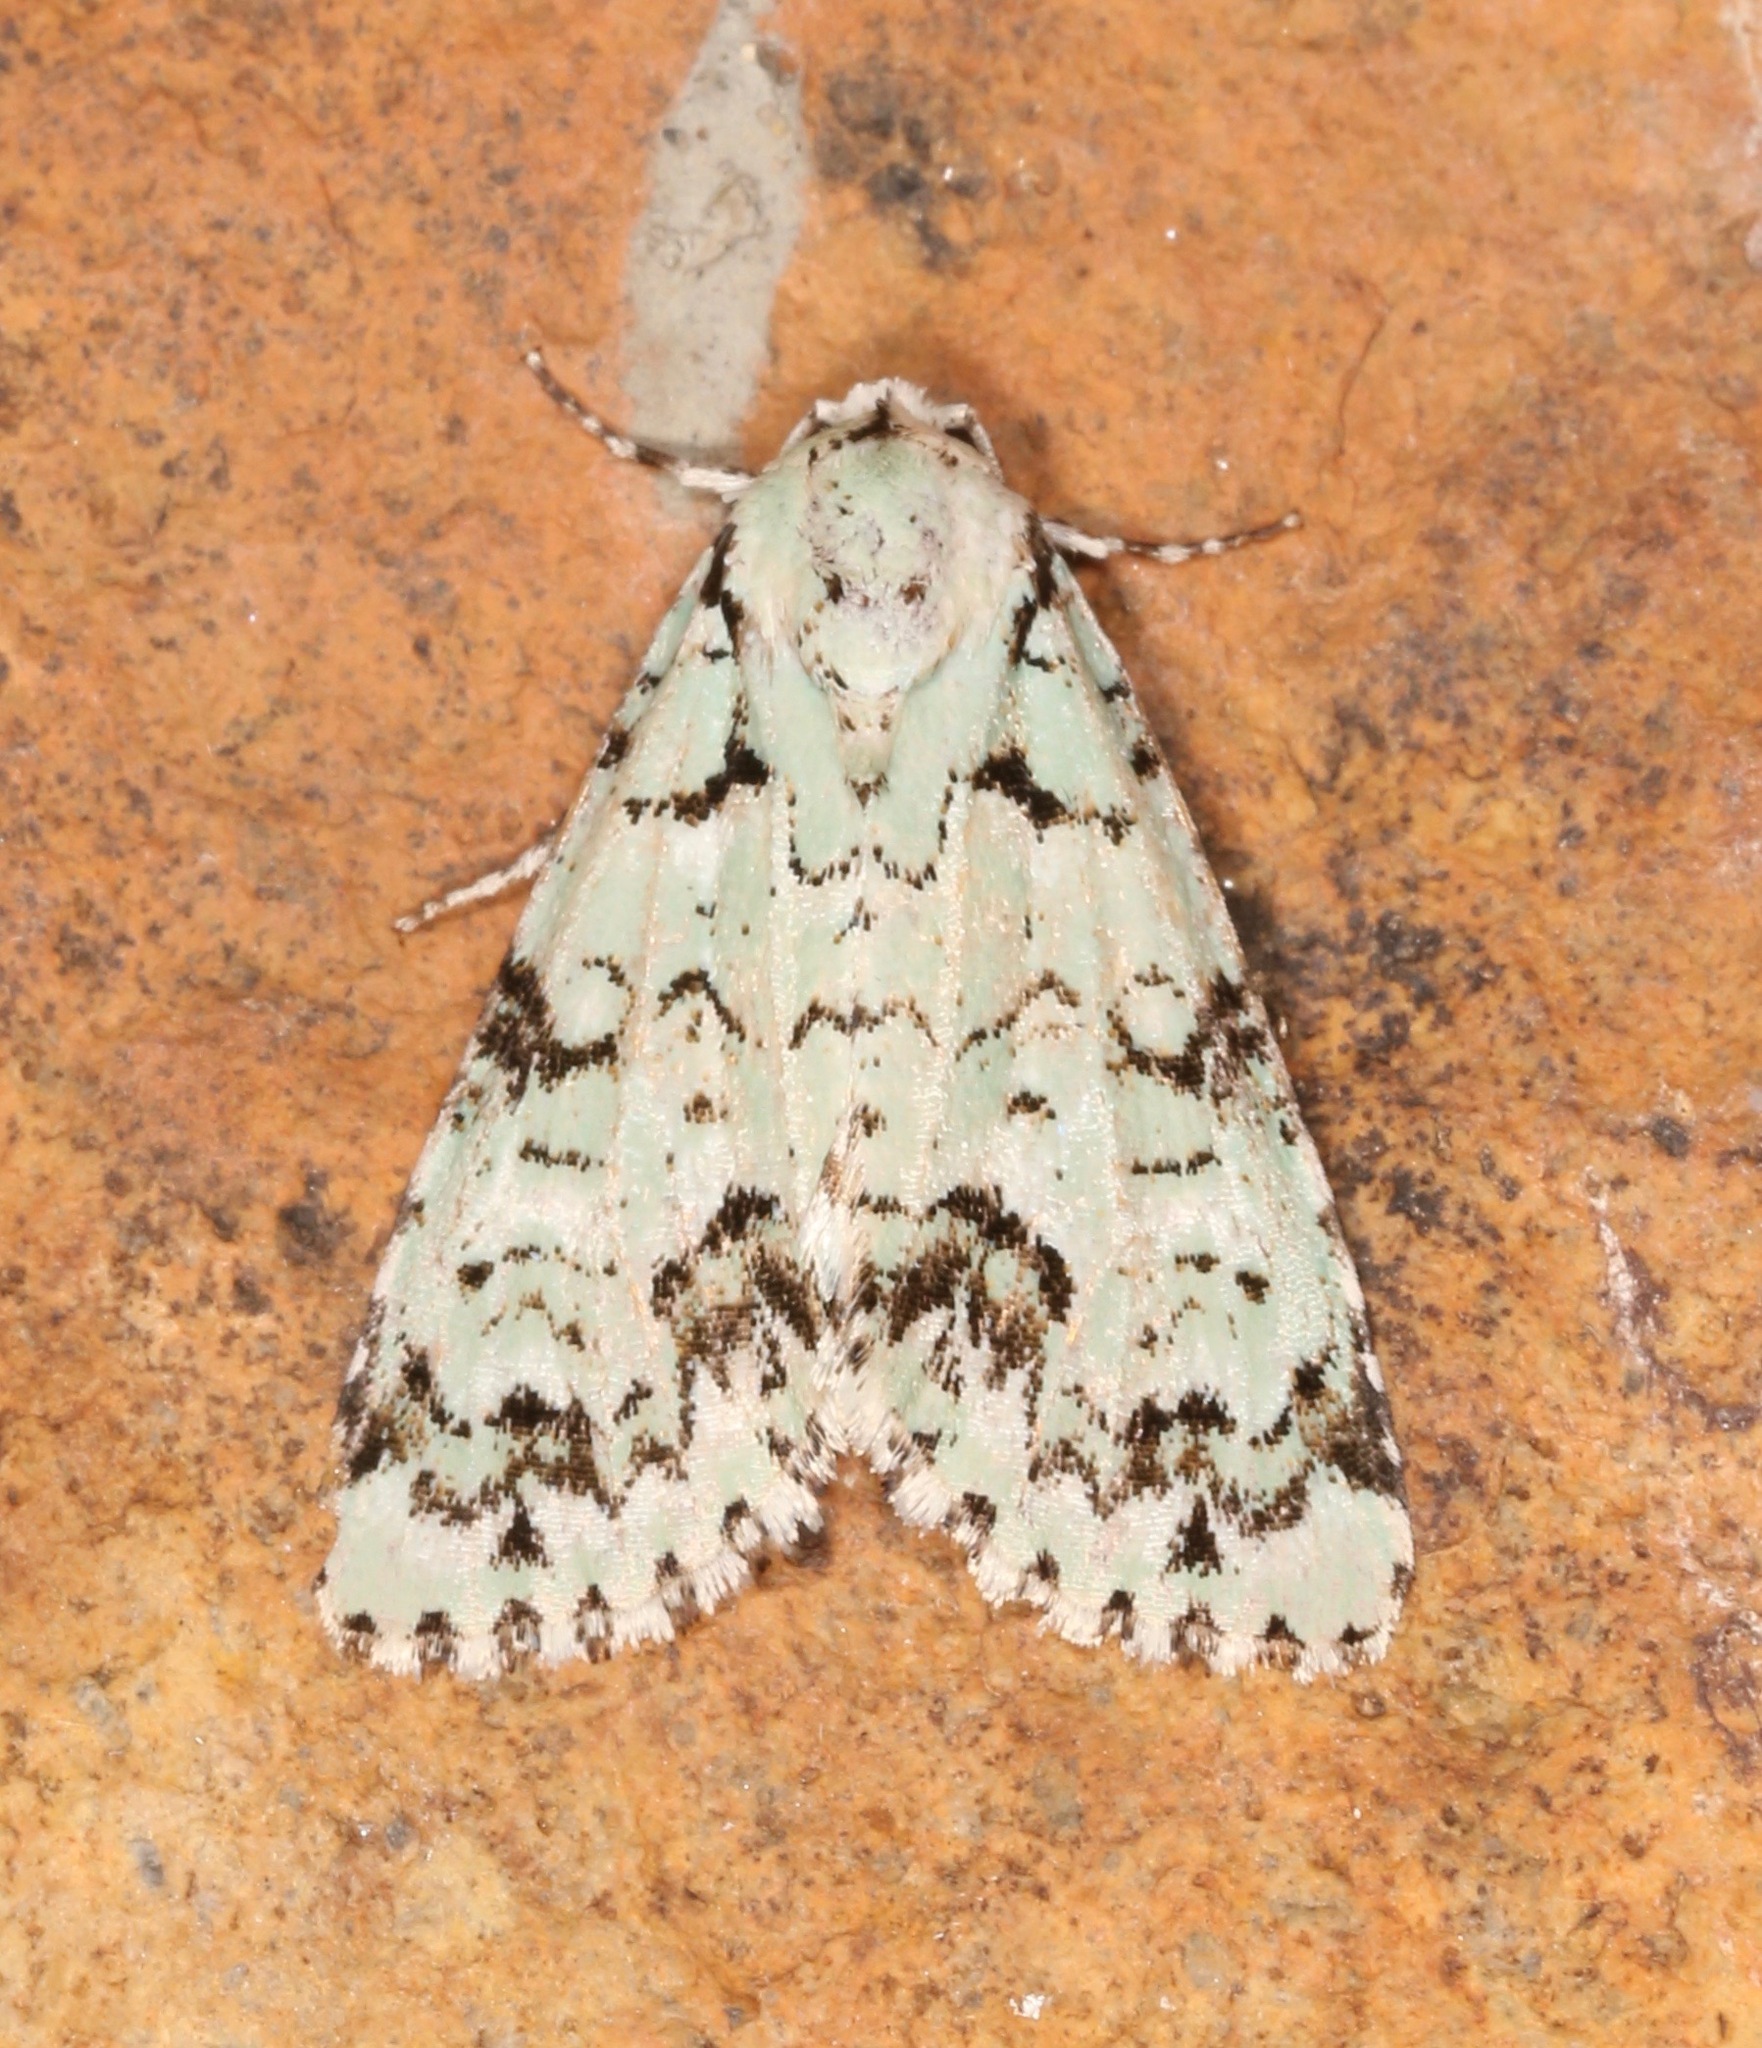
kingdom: Animalia
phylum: Arthropoda
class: Insecta
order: Lepidoptera
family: Noctuidae
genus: Chloronycta
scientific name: Chloronycta tybo
